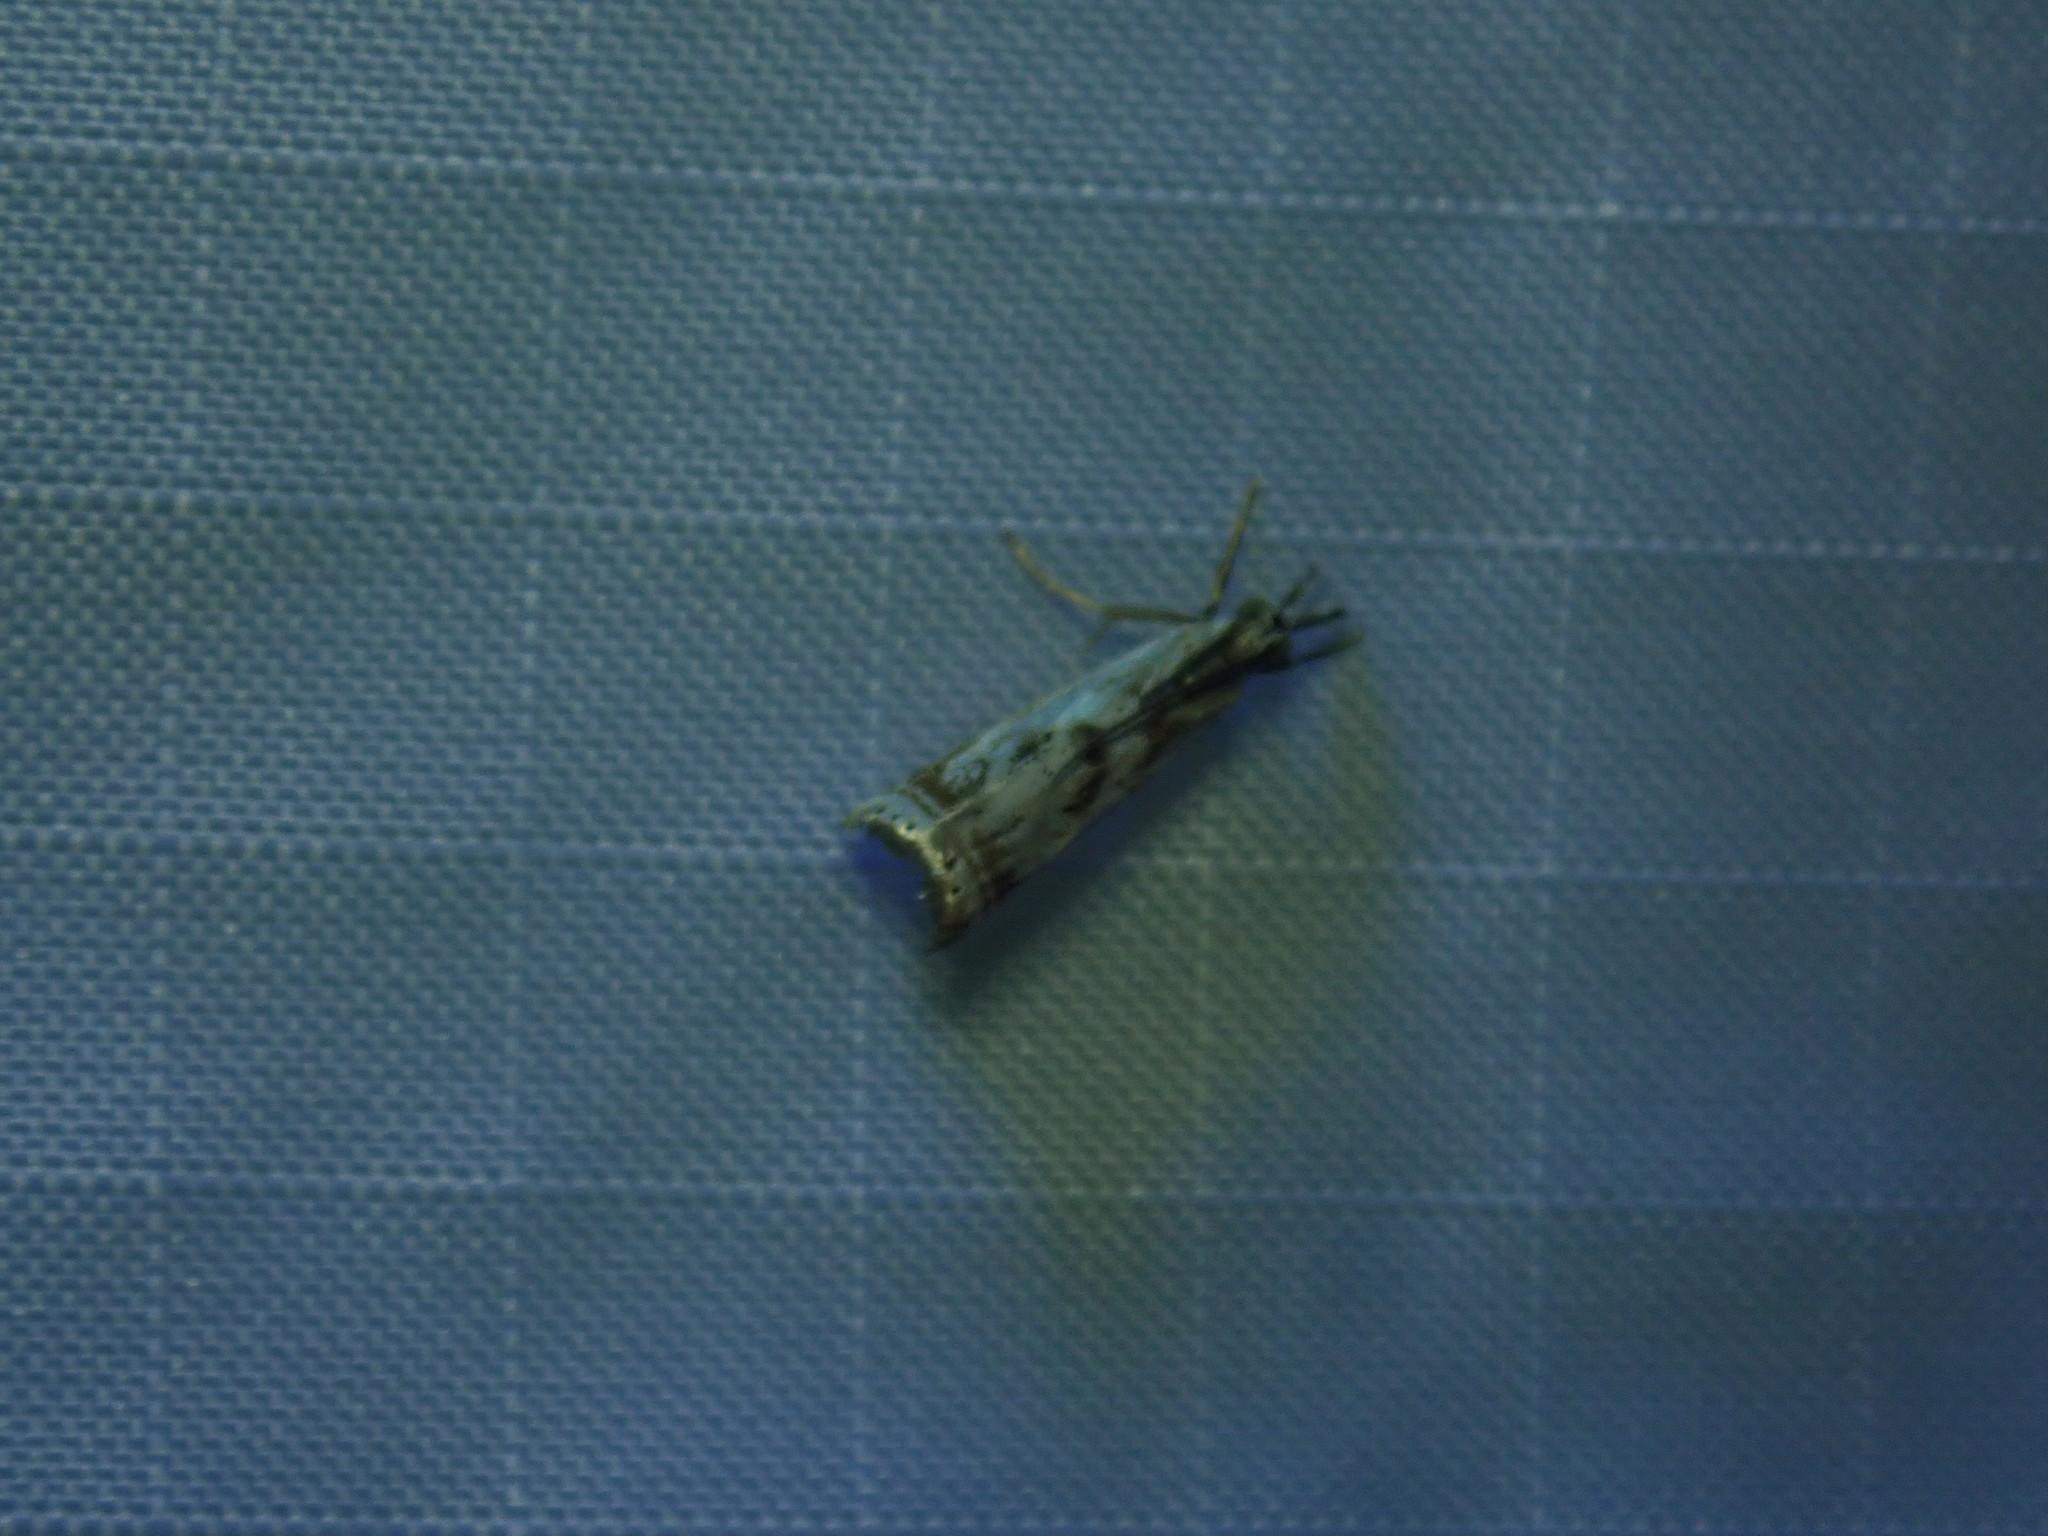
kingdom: Animalia
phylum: Arthropoda
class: Insecta
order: Lepidoptera
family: Crambidae
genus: Microcrambus
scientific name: Microcrambus elegans
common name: Elegant grass-veneer
